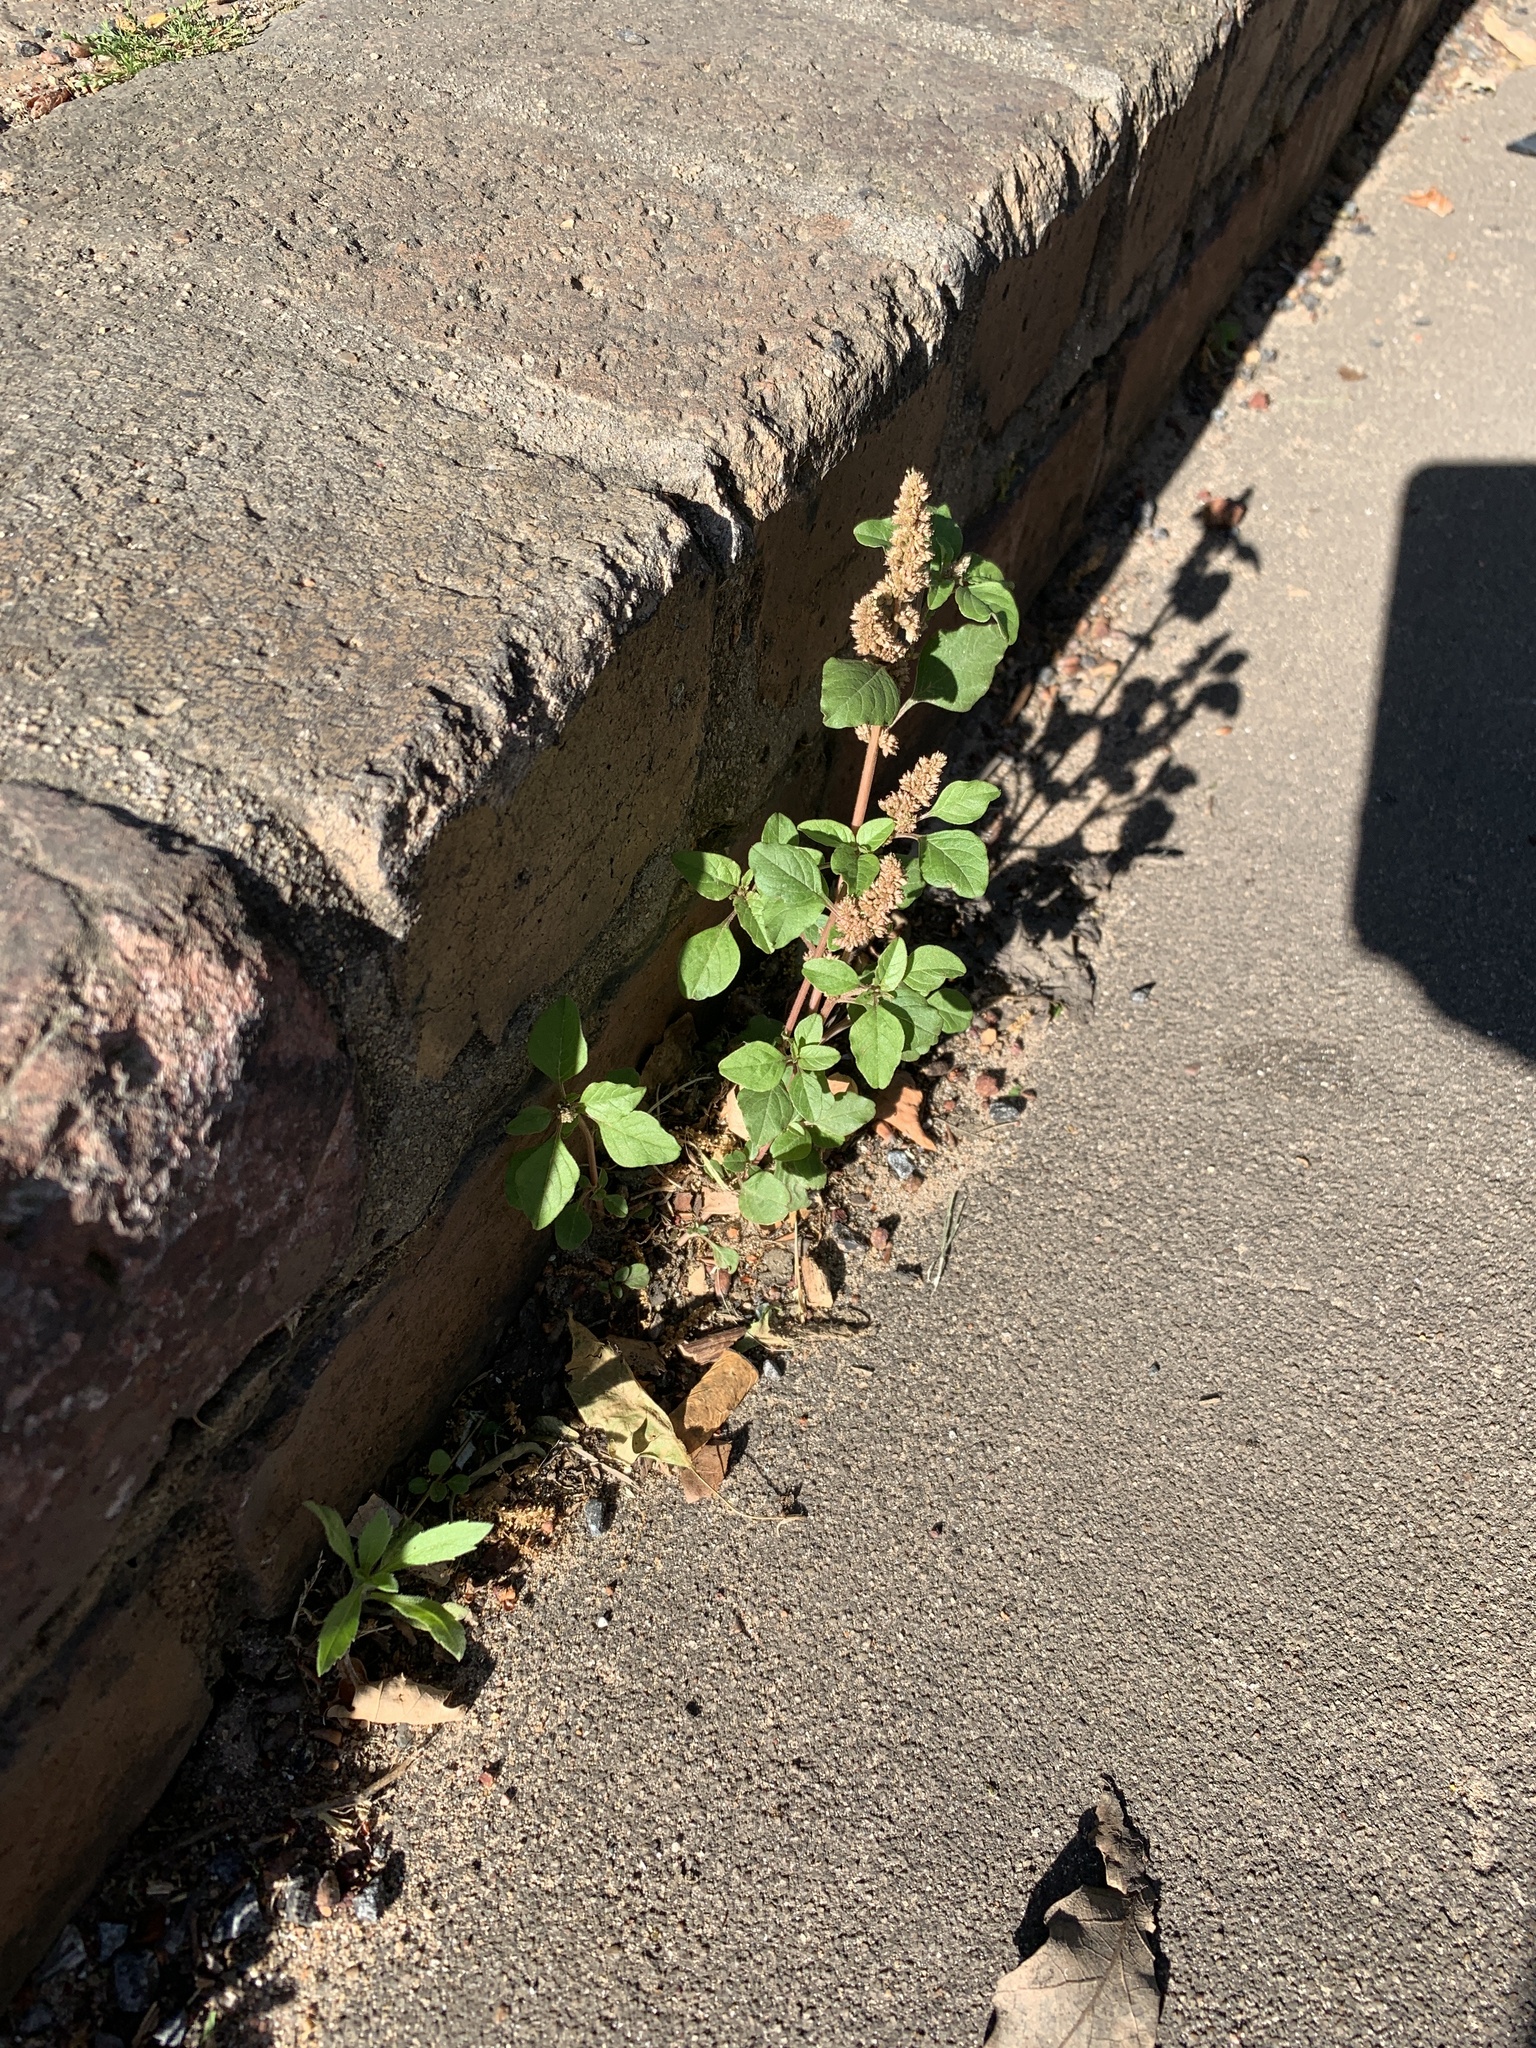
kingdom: Plantae
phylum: Tracheophyta
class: Magnoliopsida
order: Caryophyllales
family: Amaranthaceae
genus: Amaranthus
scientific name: Amaranthus deflexus
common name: Perennial pigweed
